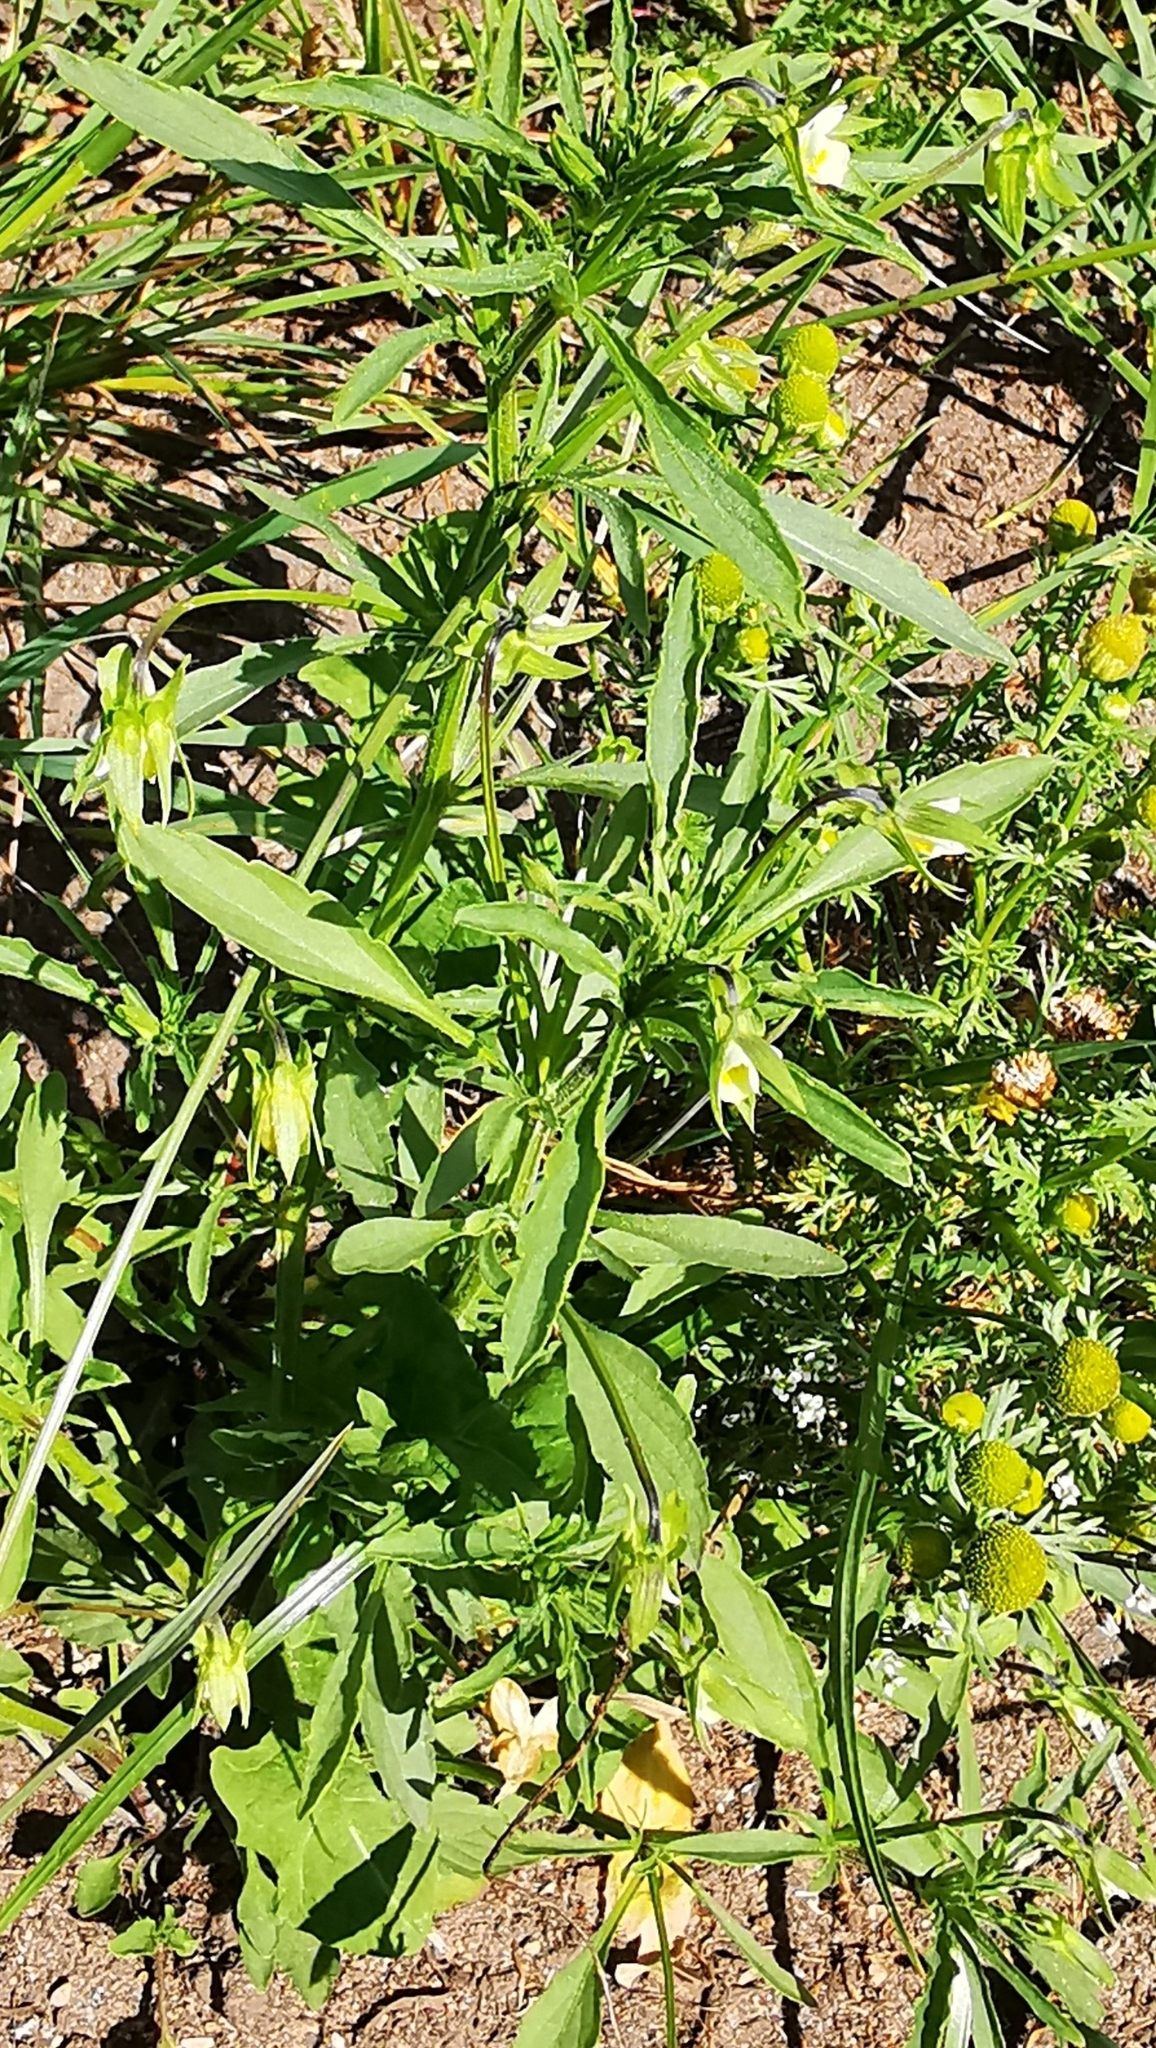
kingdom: Plantae
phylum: Tracheophyta
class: Magnoliopsida
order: Malpighiales
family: Violaceae
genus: Viola
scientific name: Viola arvensis
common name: Field pansy
